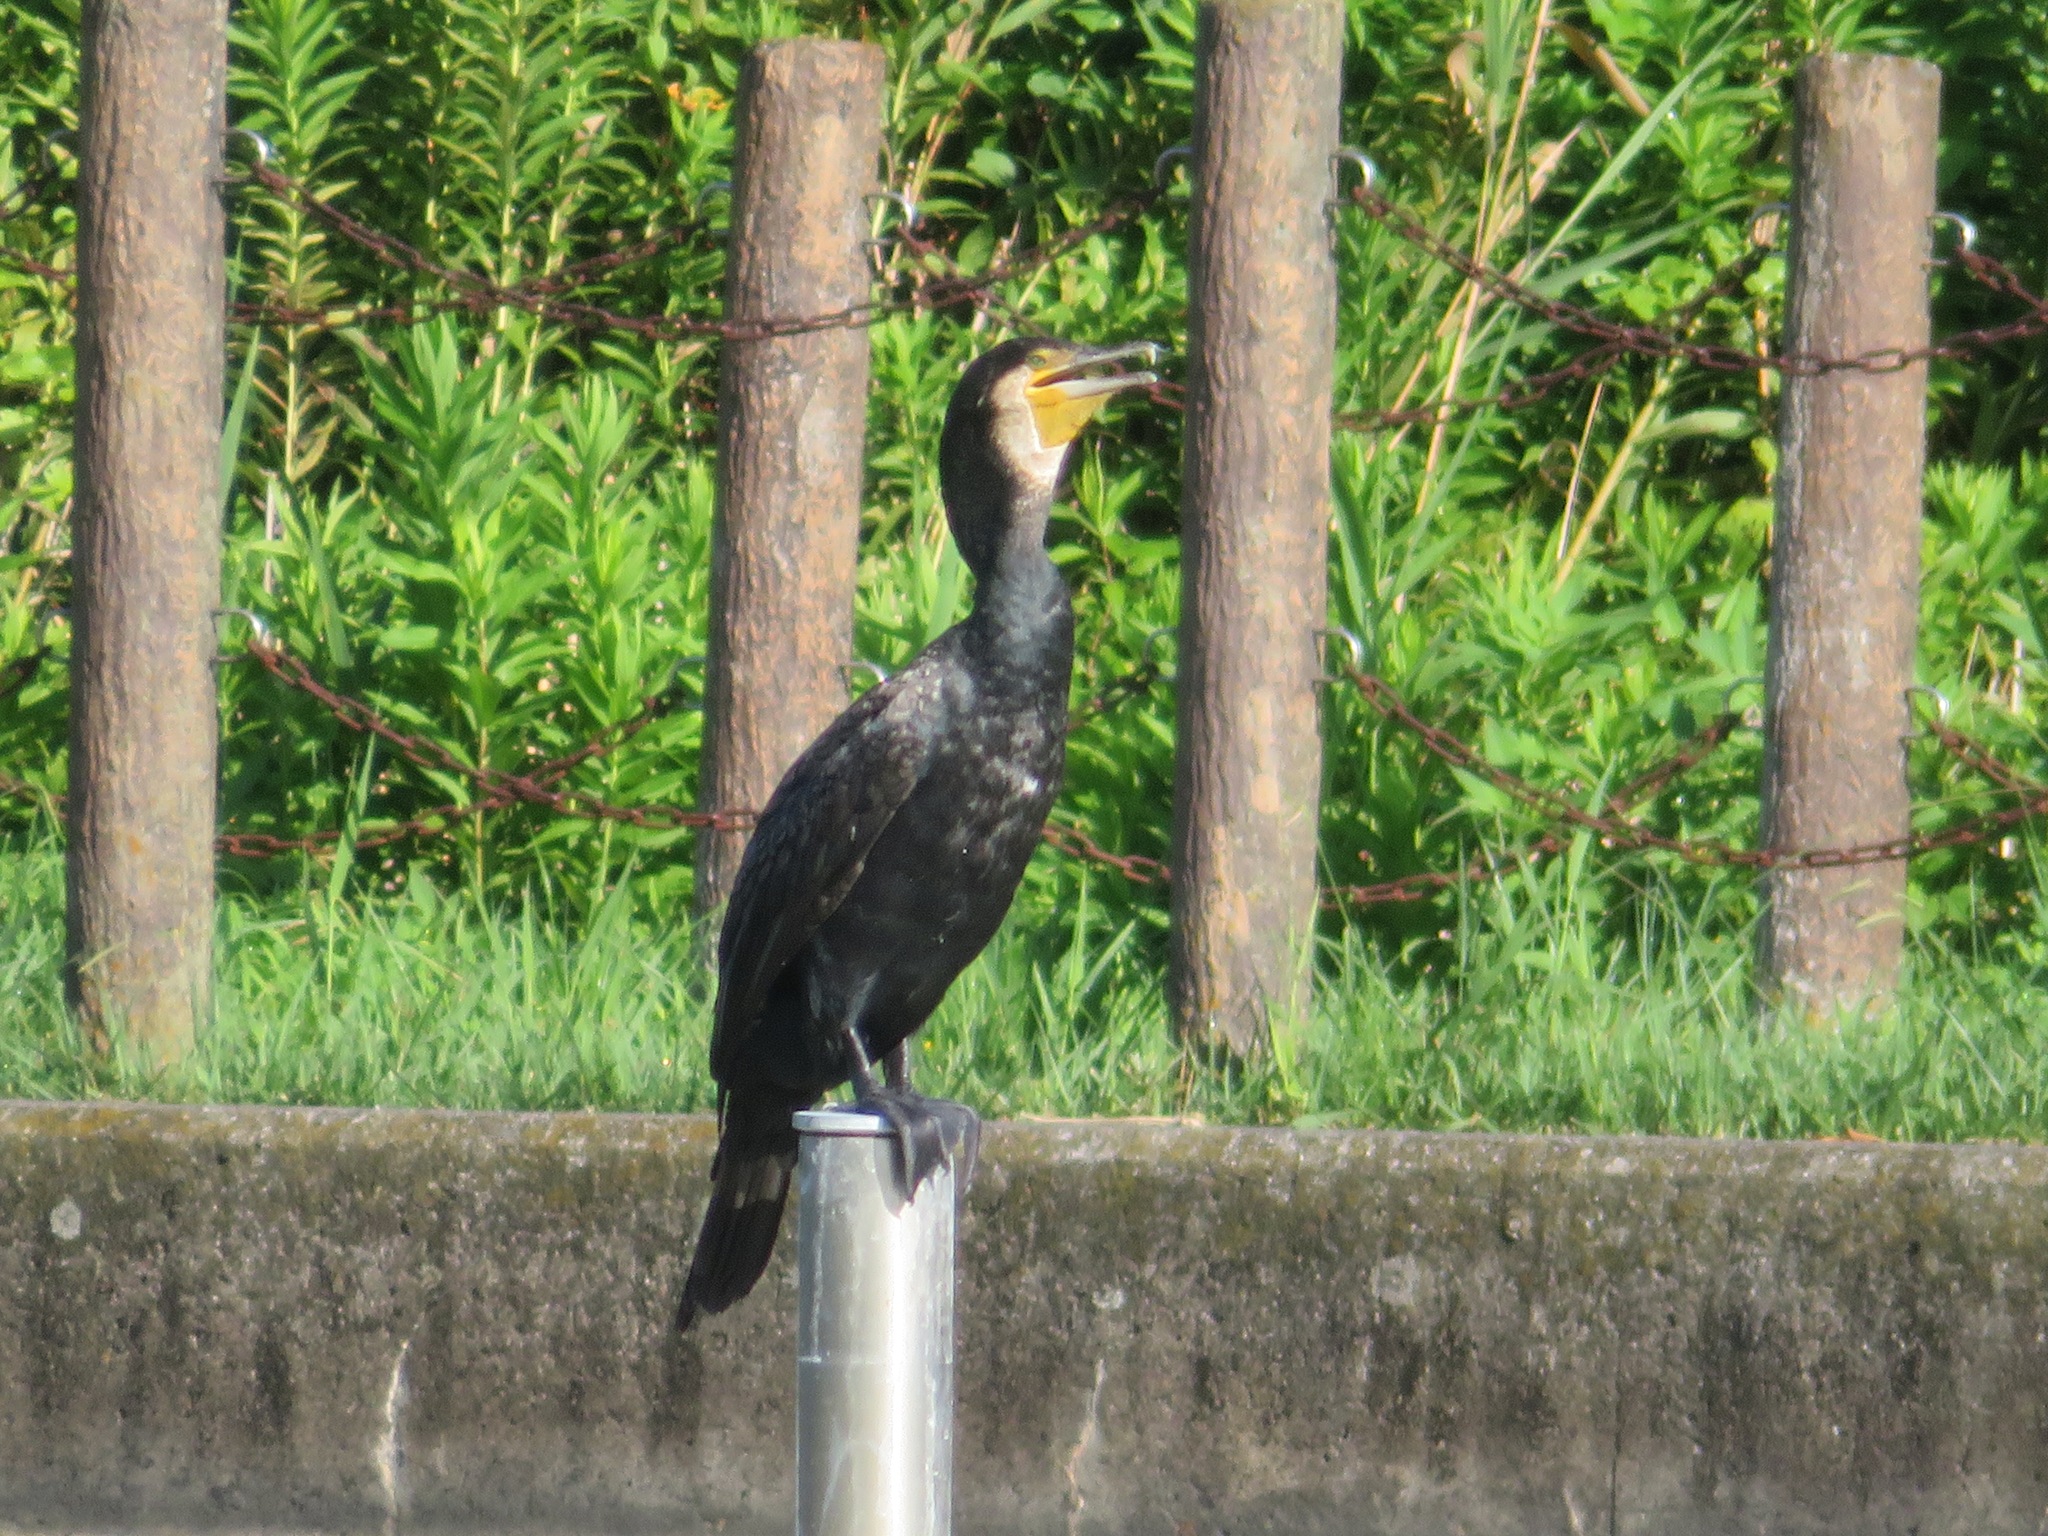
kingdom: Animalia
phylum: Chordata
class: Aves
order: Suliformes
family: Phalacrocoracidae
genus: Phalacrocorax
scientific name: Phalacrocorax carbo
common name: Great cormorant
